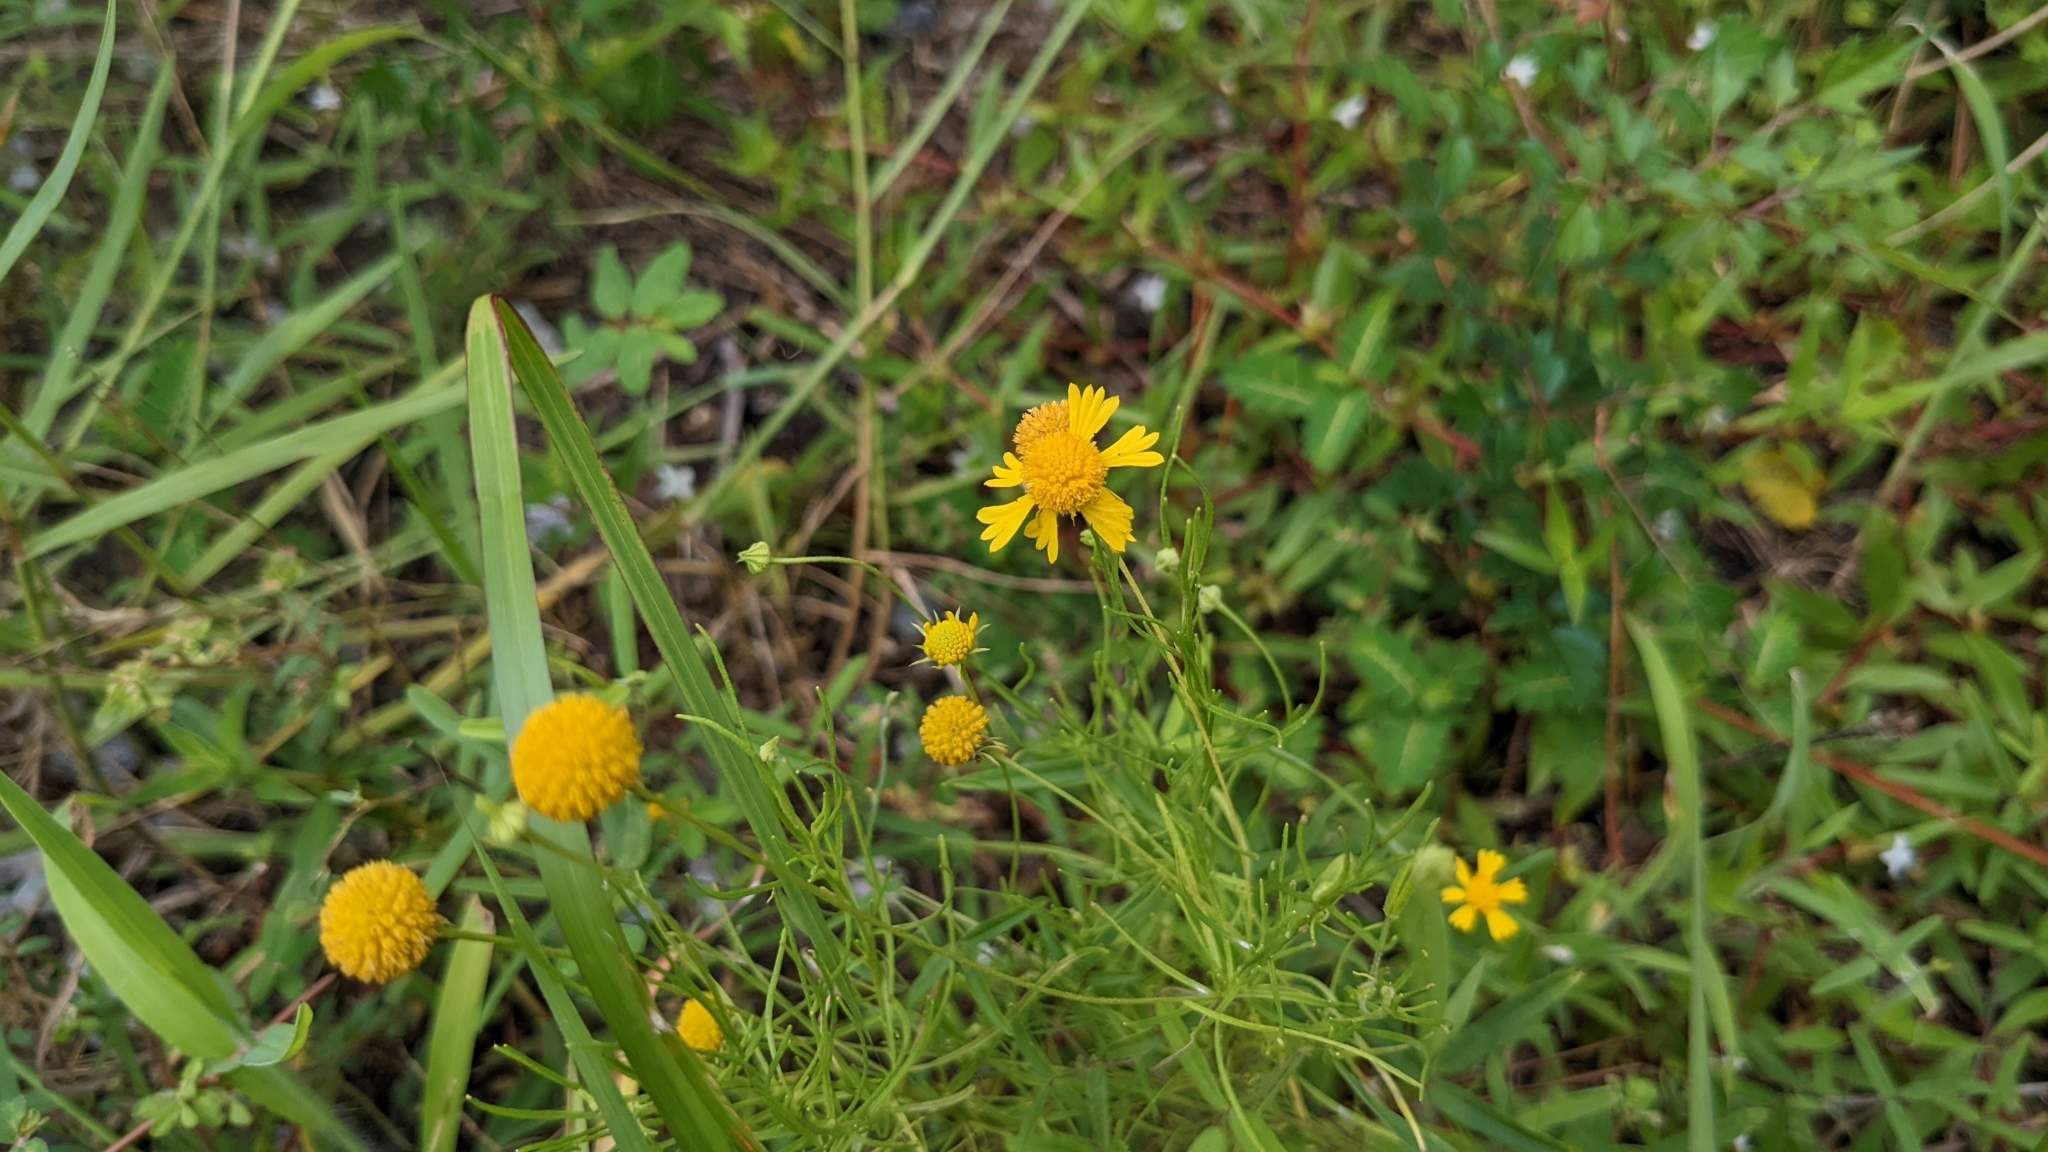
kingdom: Plantae
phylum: Tracheophyta
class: Magnoliopsida
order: Asterales
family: Asteraceae
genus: Helenium
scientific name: Helenium amarum
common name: Bitter sneezeweed
